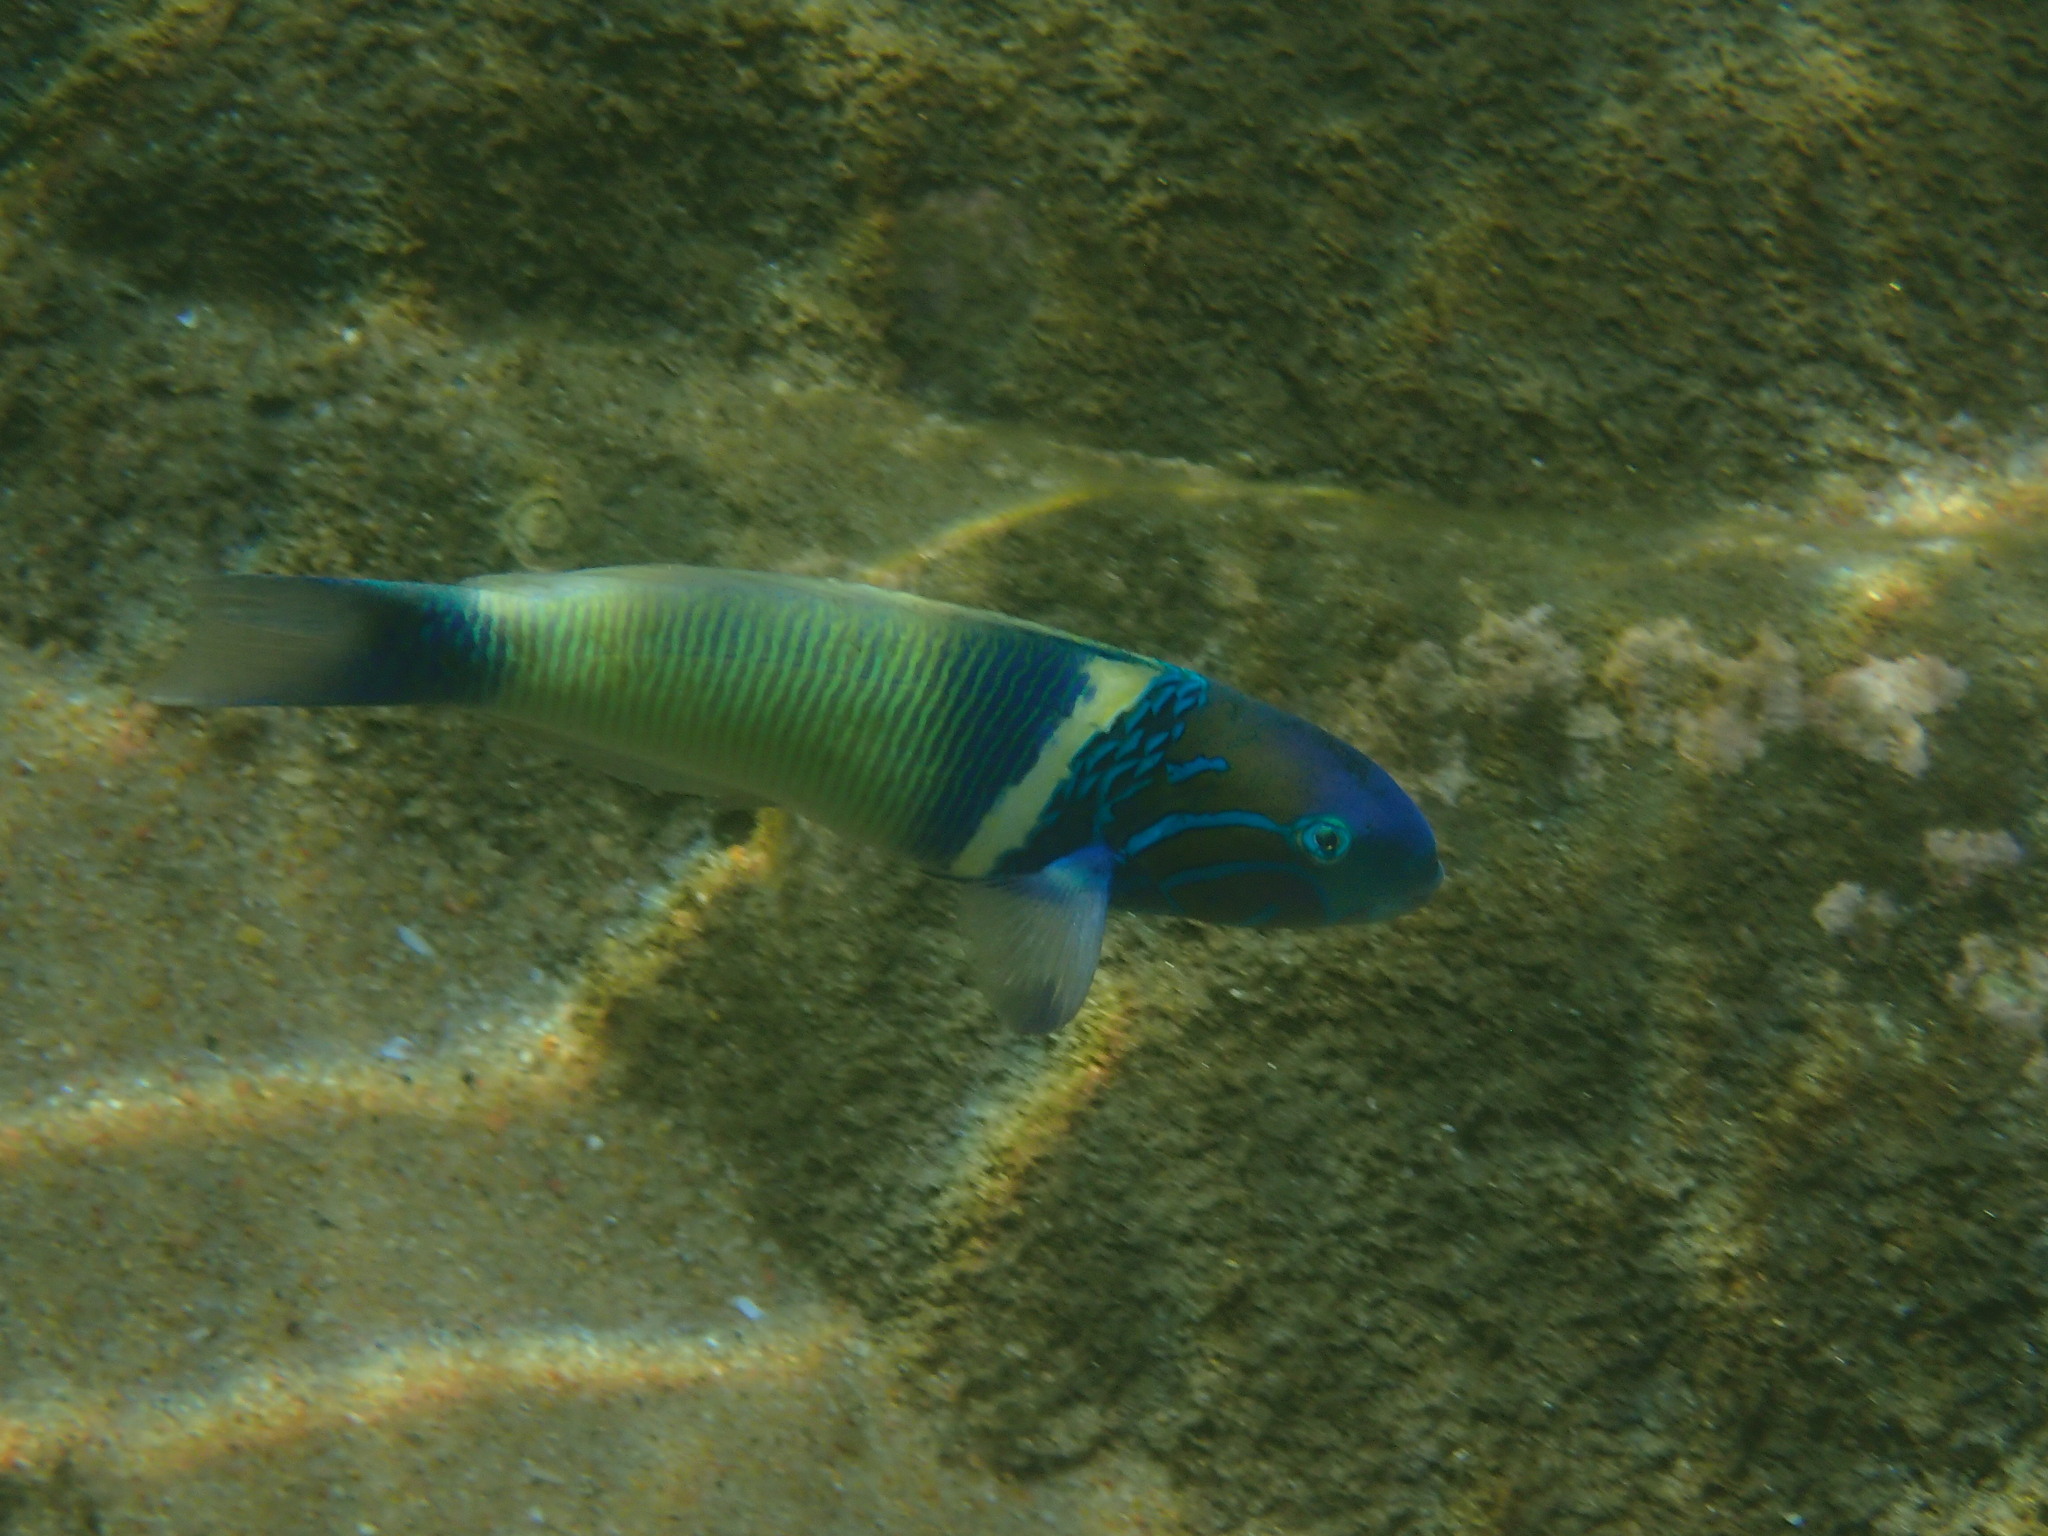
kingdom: Animalia
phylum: Chordata
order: Perciformes
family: Labridae
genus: Thalassoma
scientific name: Thalassoma hebraicum
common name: Goldbar wrasse
